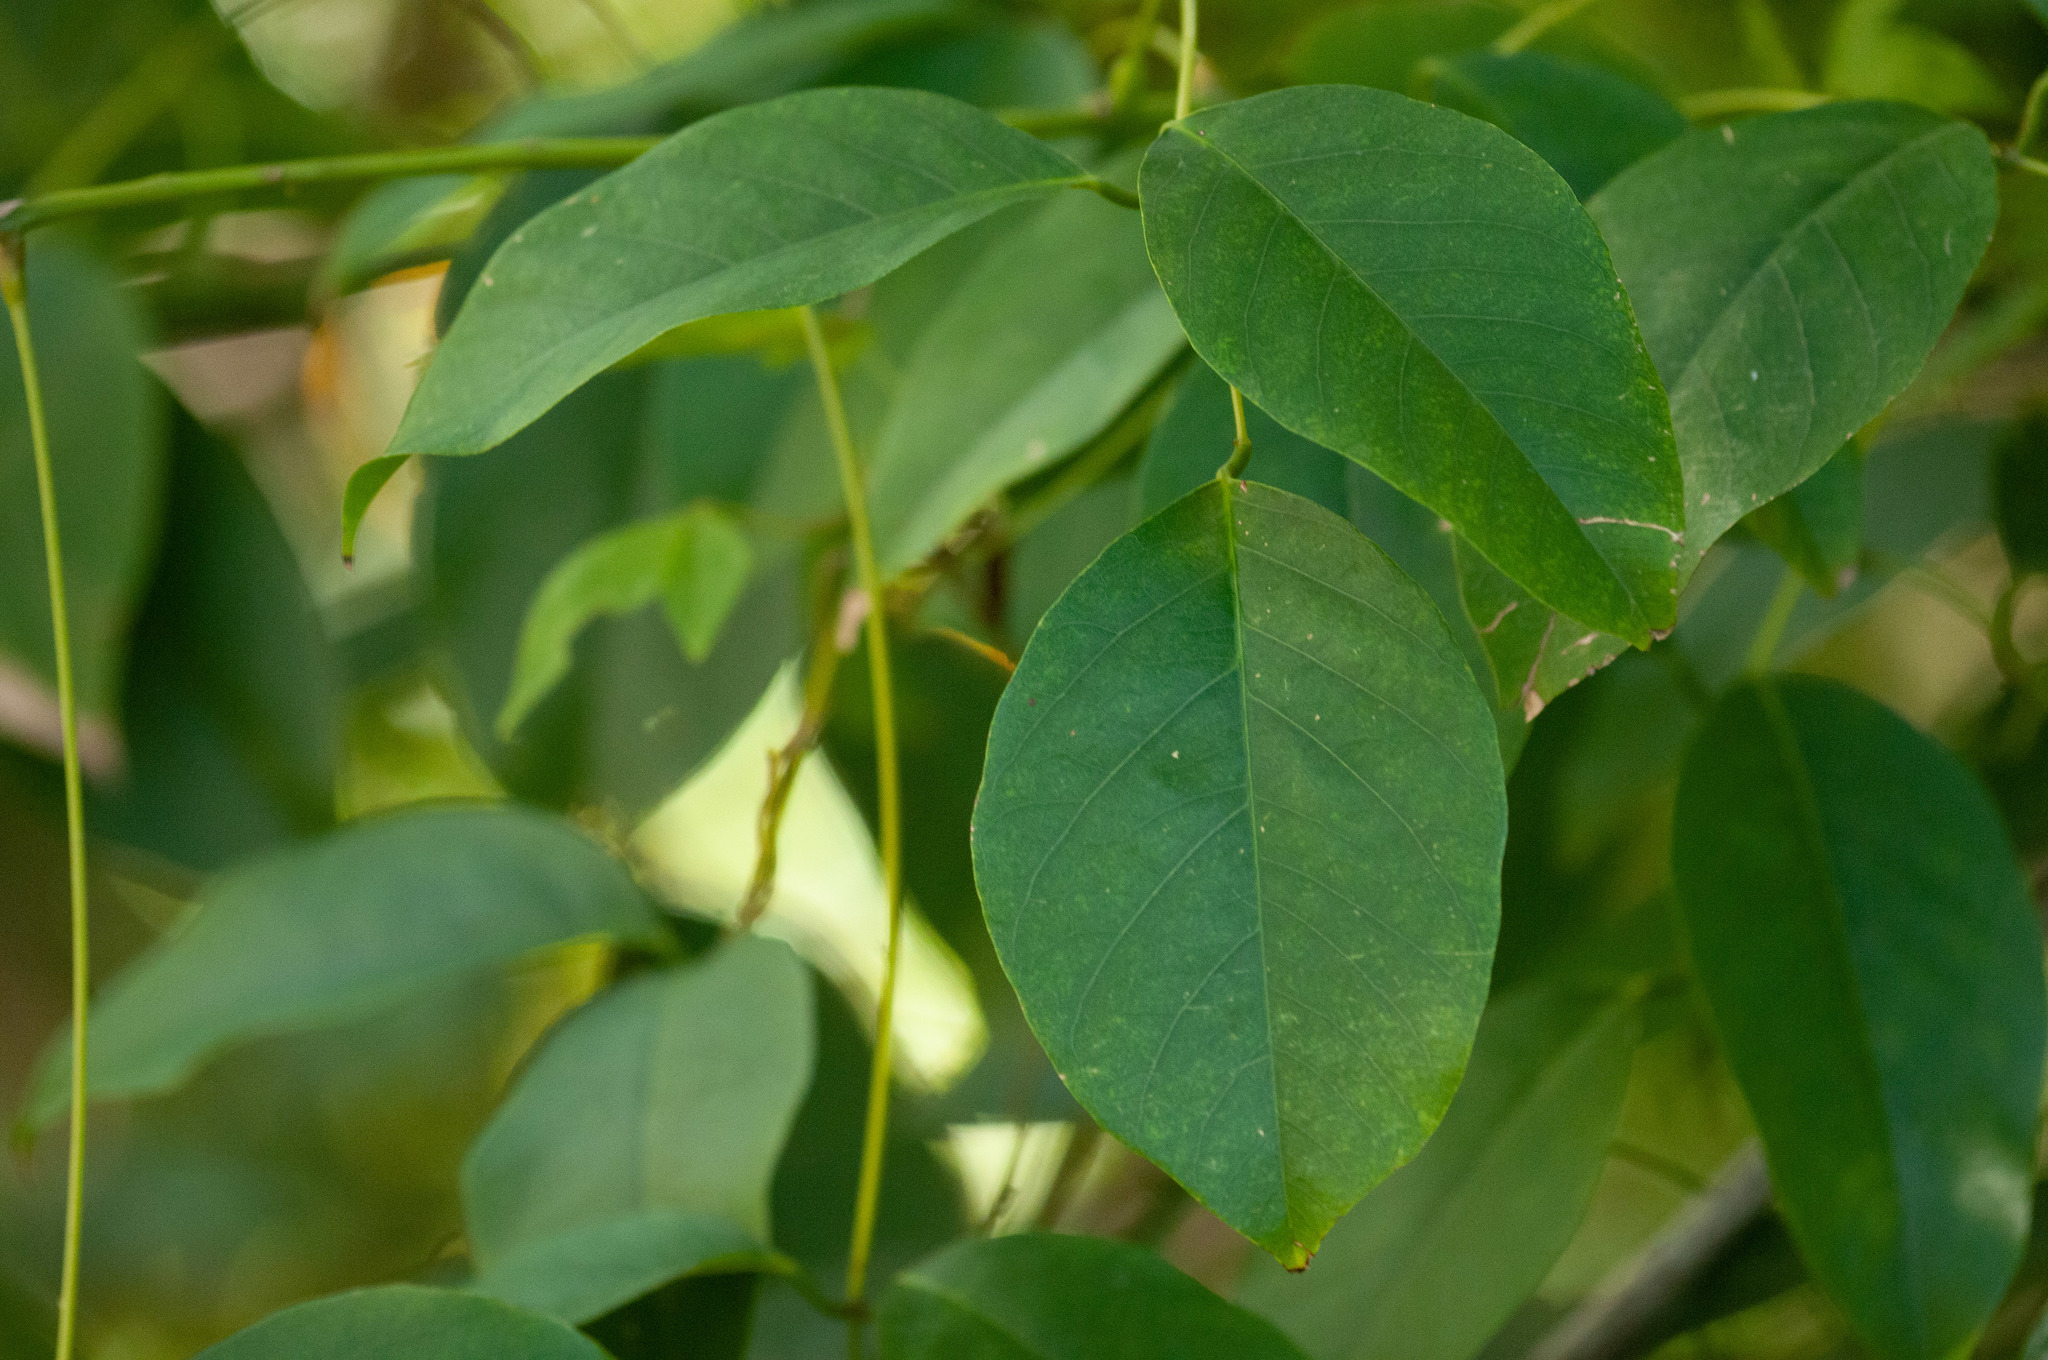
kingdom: Plantae
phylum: Tracheophyta
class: Magnoliopsida
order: Fabales
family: Fabaceae
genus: Erythrina
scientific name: Erythrina crista-galli
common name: Cockspur coral tree
